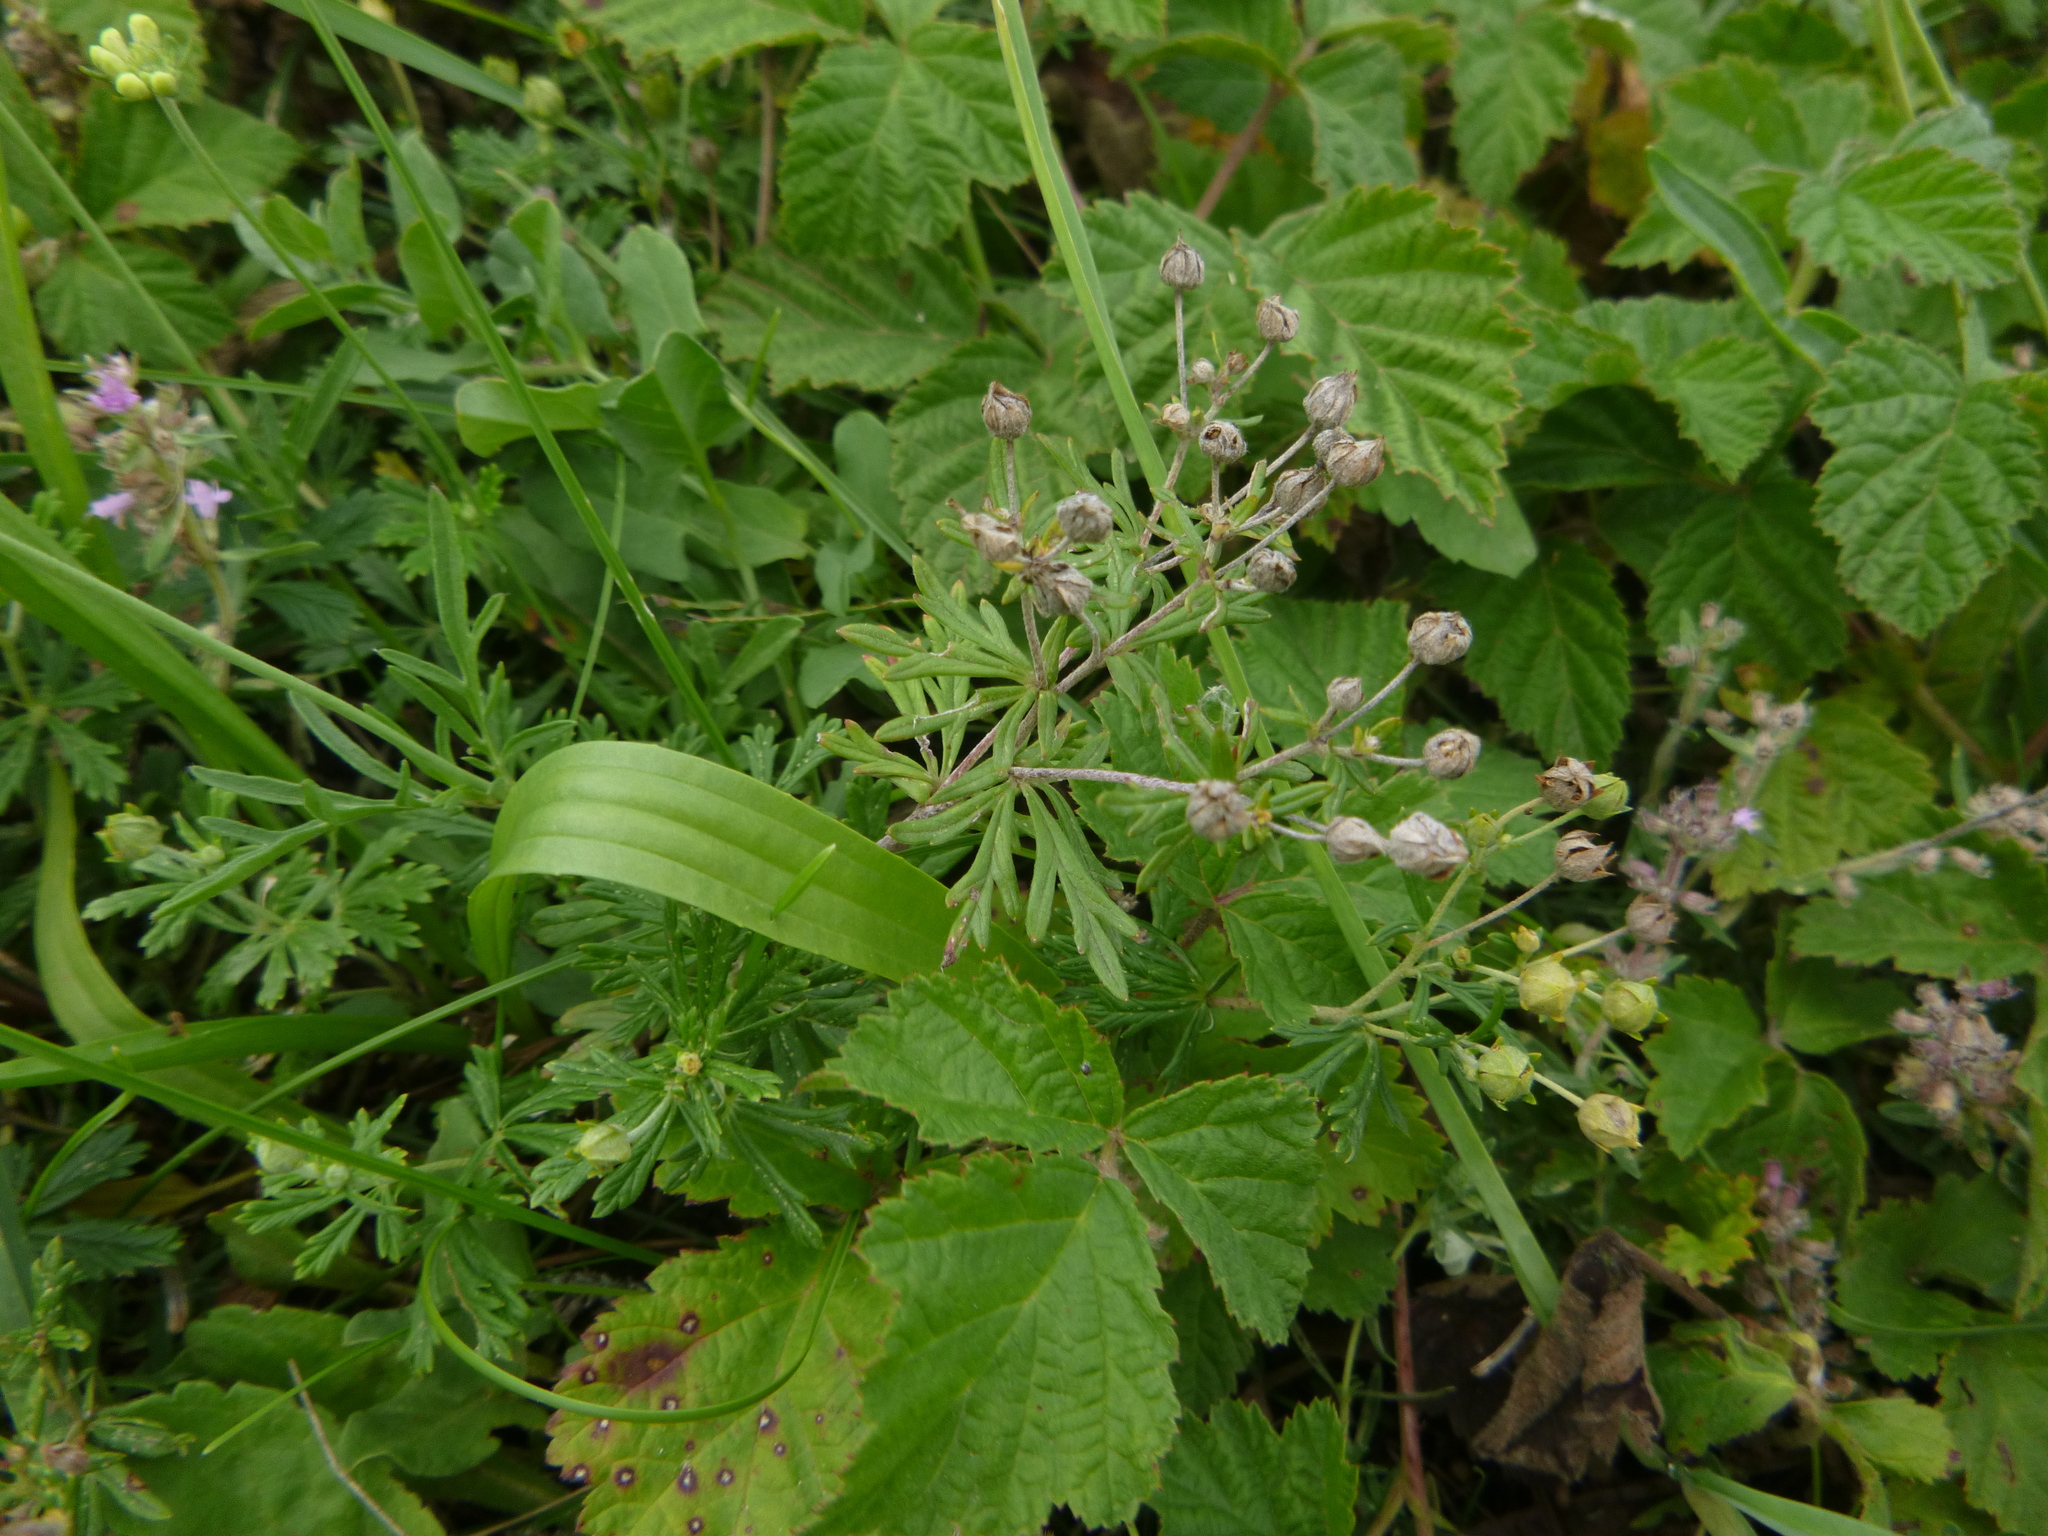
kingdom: Plantae
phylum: Tracheophyta
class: Magnoliopsida
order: Rosales
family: Rosaceae
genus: Potentilla
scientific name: Potentilla argentea
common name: Hoary cinquefoil
